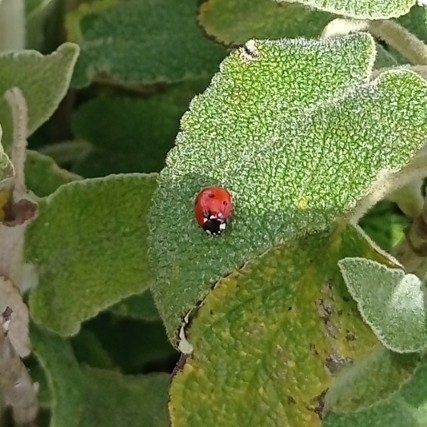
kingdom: Animalia
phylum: Arthropoda
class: Insecta
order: Coleoptera
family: Coccinellidae
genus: Coccinella
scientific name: Coccinella septempunctata
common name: Sevenspotted lady beetle
